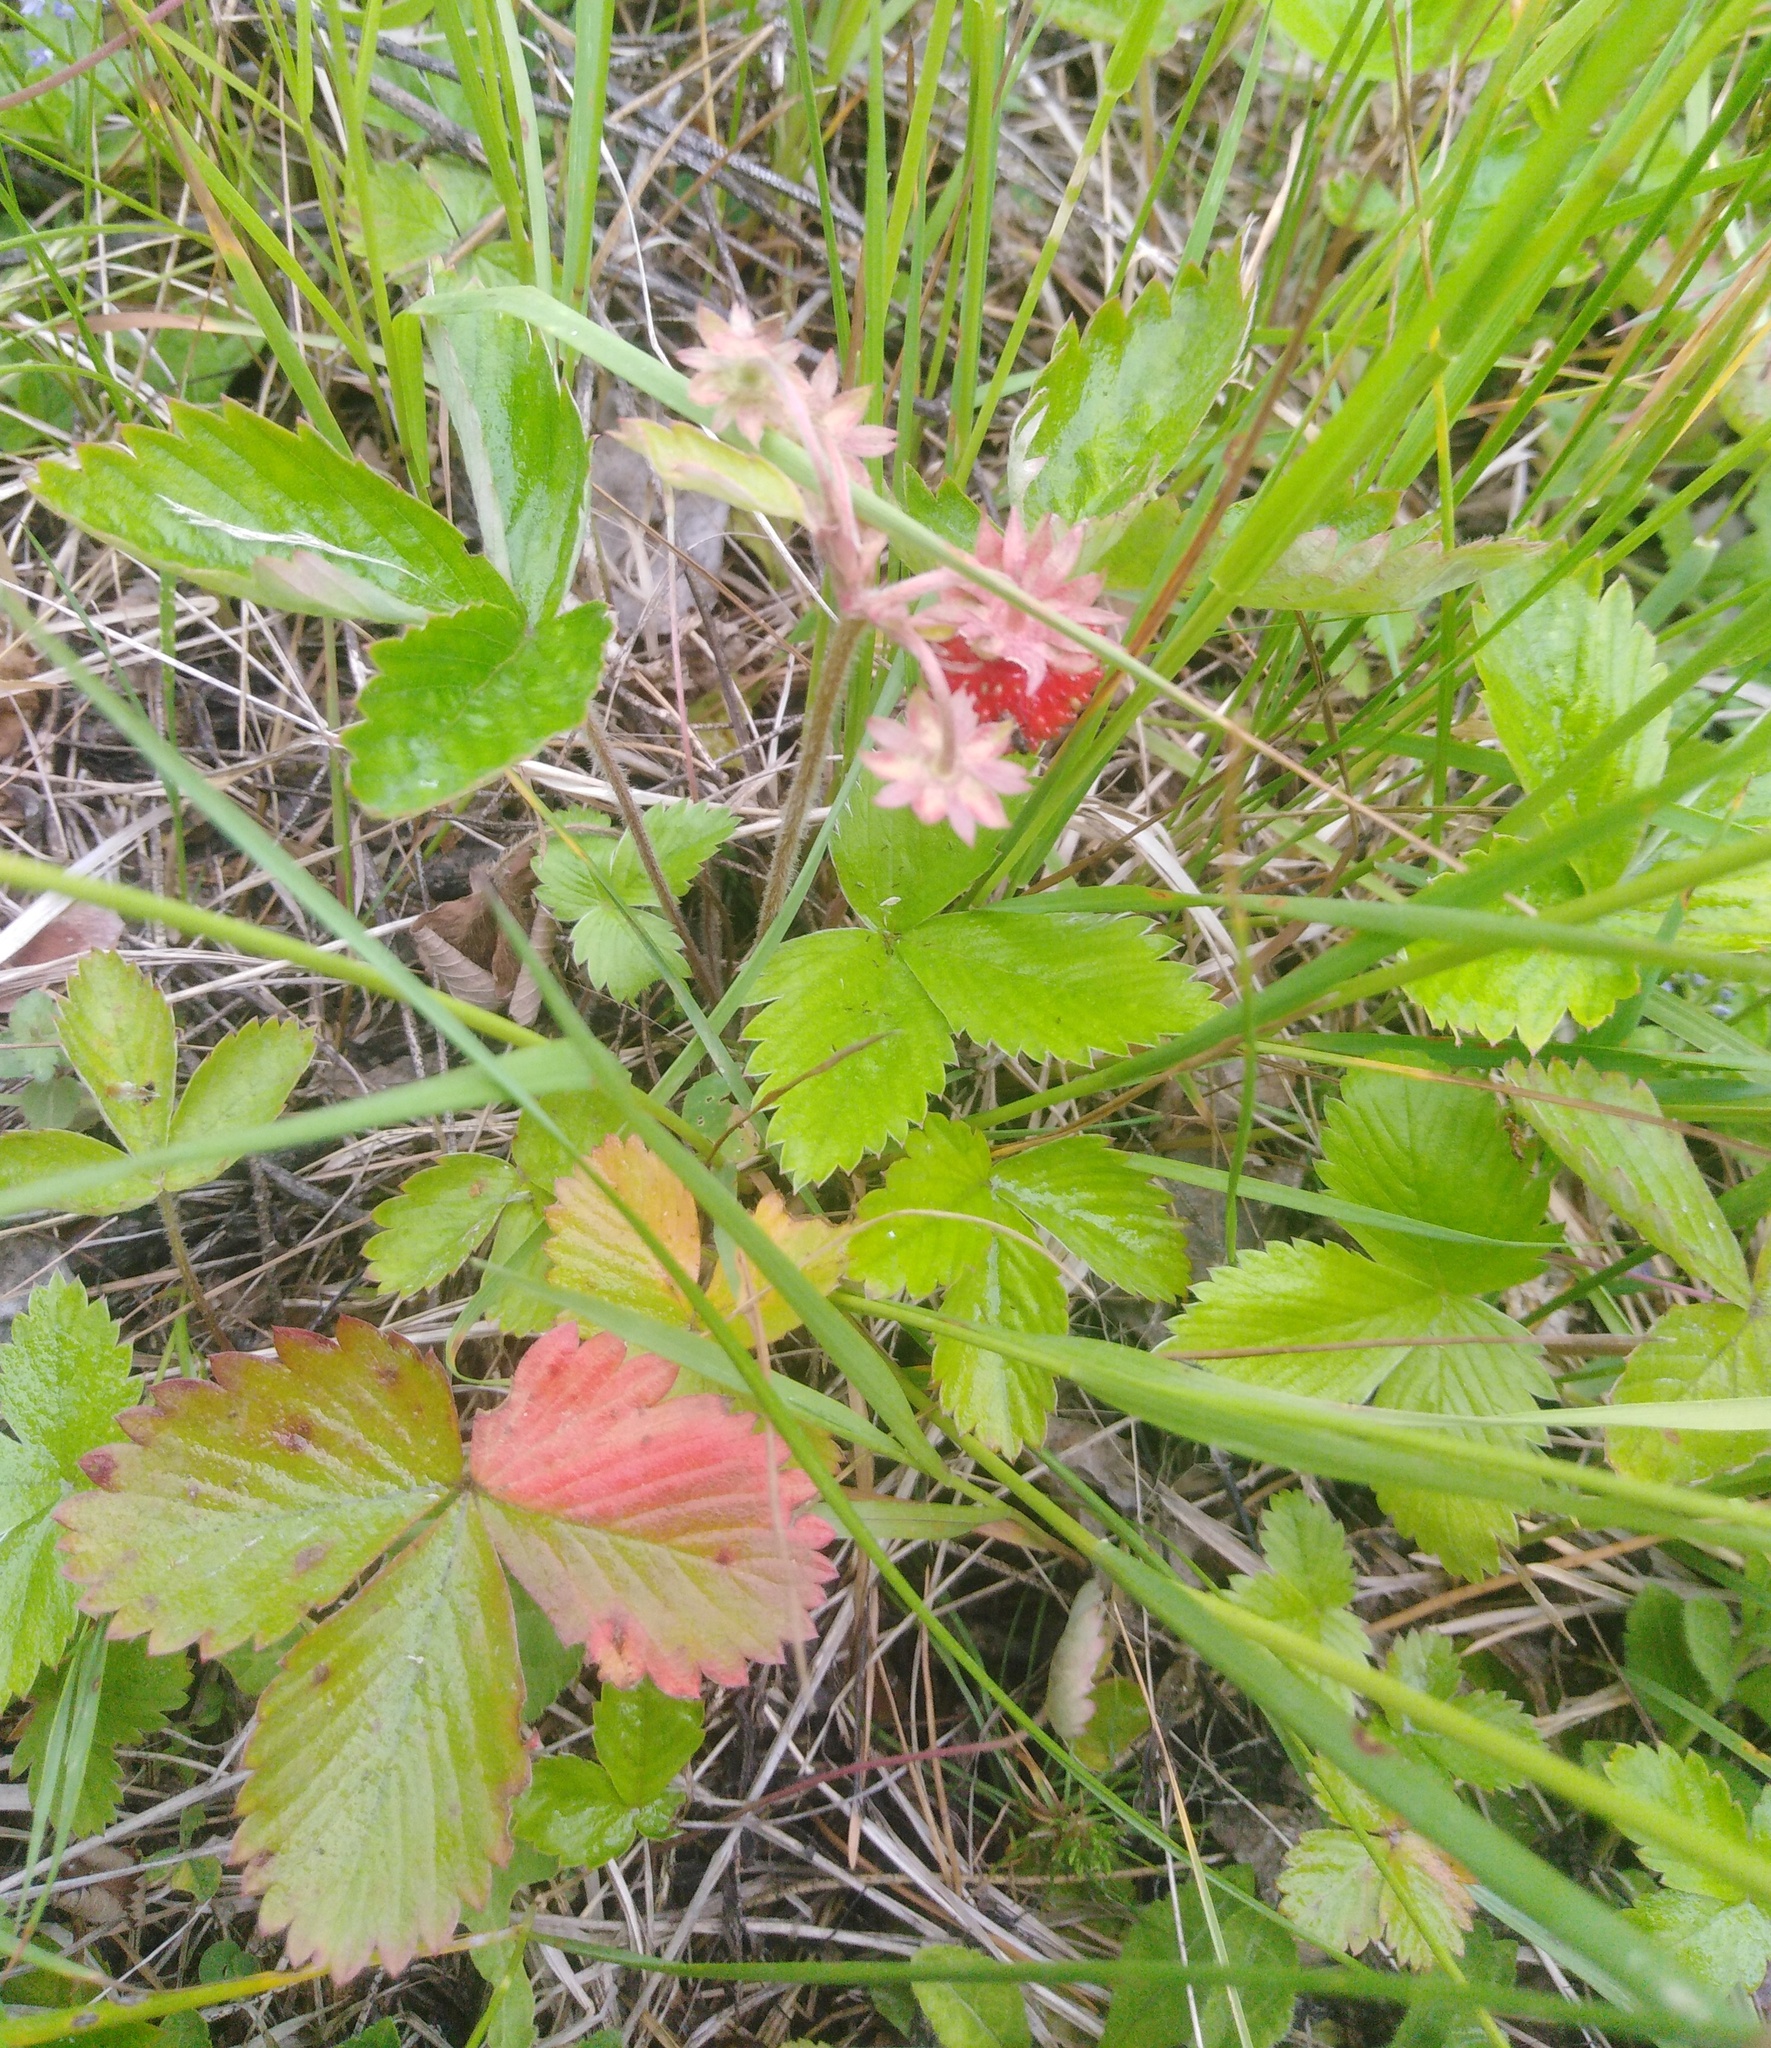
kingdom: Plantae
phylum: Tracheophyta
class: Magnoliopsida
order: Rosales
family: Rosaceae
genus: Fragaria
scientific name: Fragaria vesca
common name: Wild strawberry
